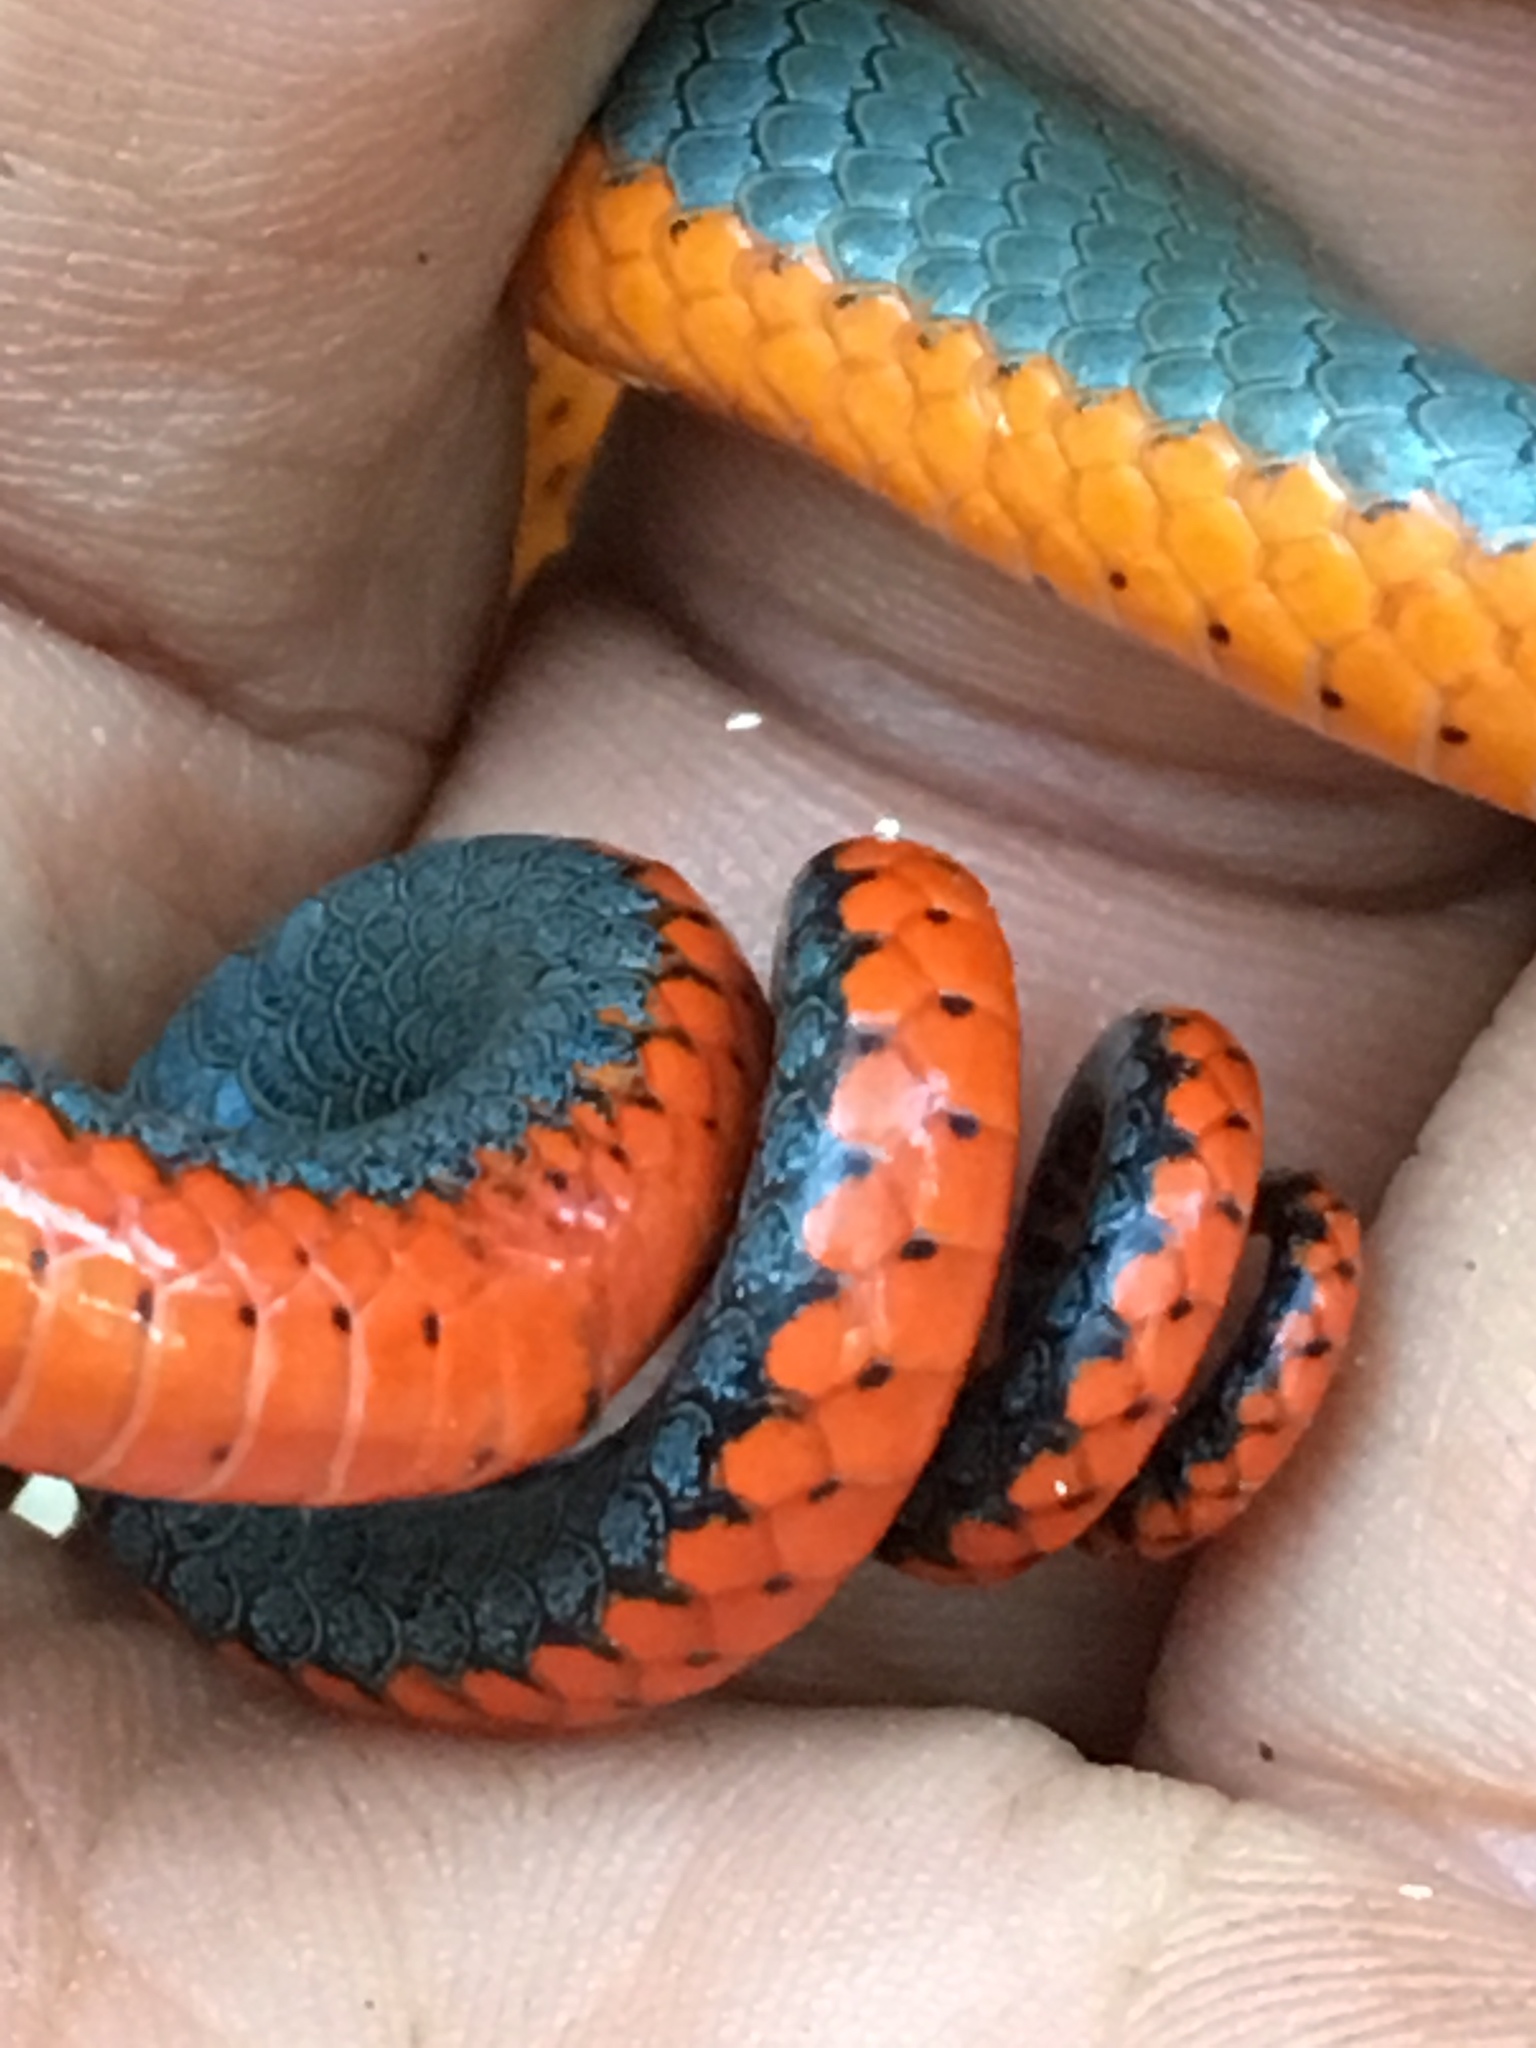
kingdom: Animalia
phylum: Chordata
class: Squamata
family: Colubridae
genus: Diadophis
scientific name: Diadophis punctatus
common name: Ringneck snake
